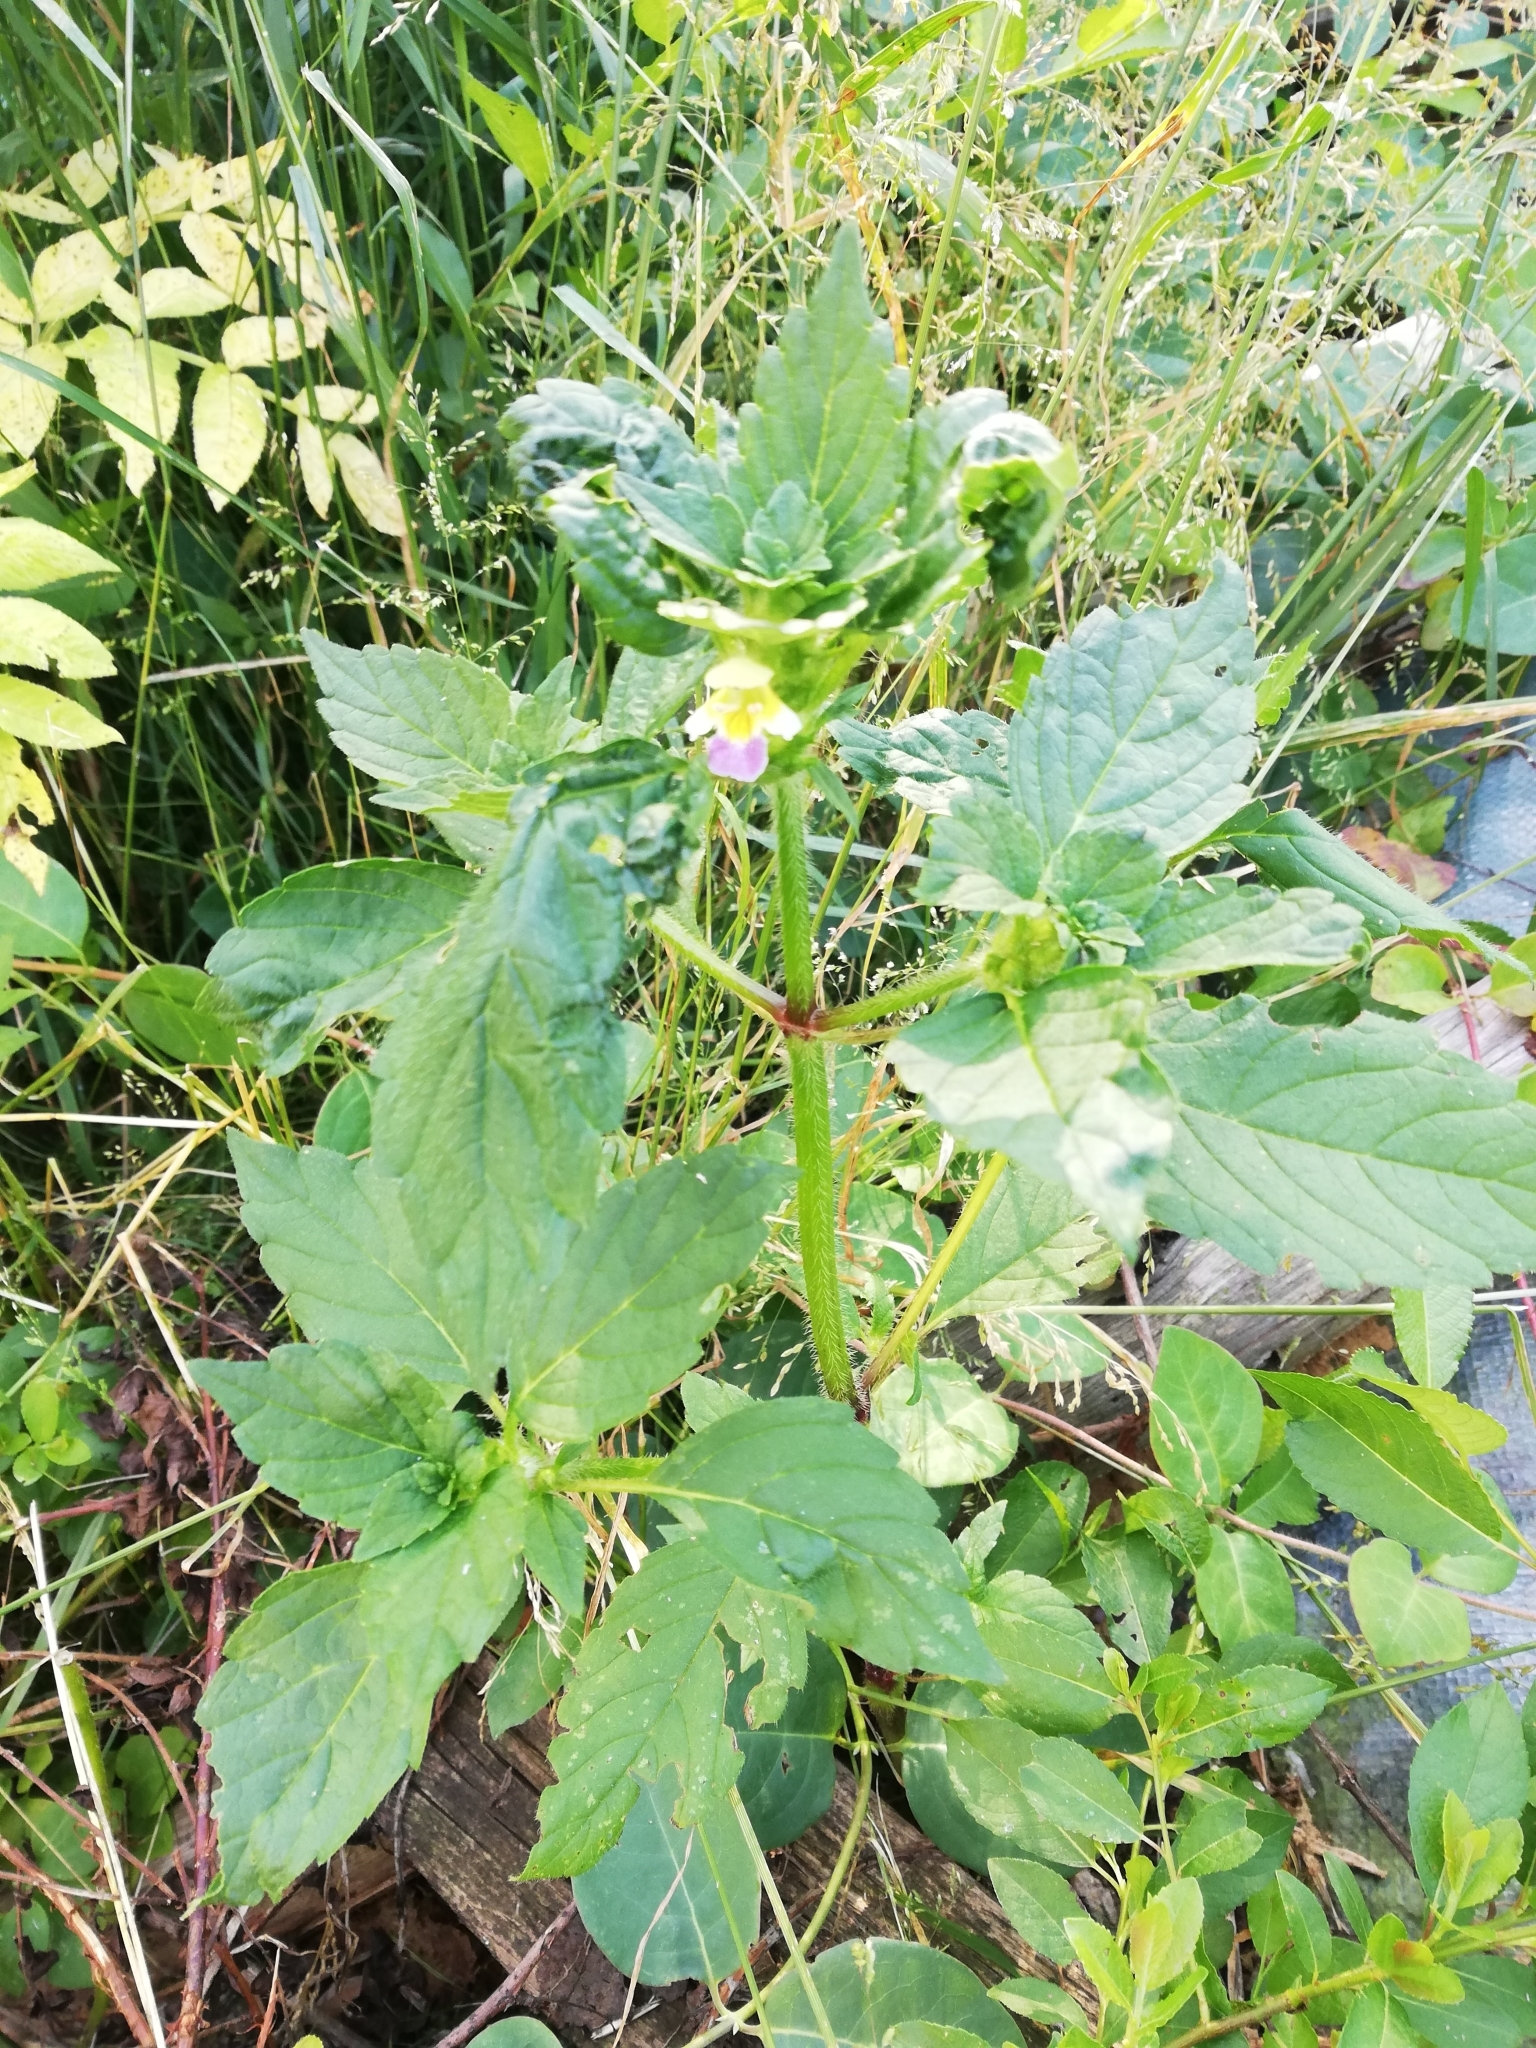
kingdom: Plantae
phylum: Tracheophyta
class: Magnoliopsida
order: Lamiales
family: Lamiaceae
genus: Galeopsis
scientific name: Galeopsis speciosa
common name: Large-flowered hemp-nettle
